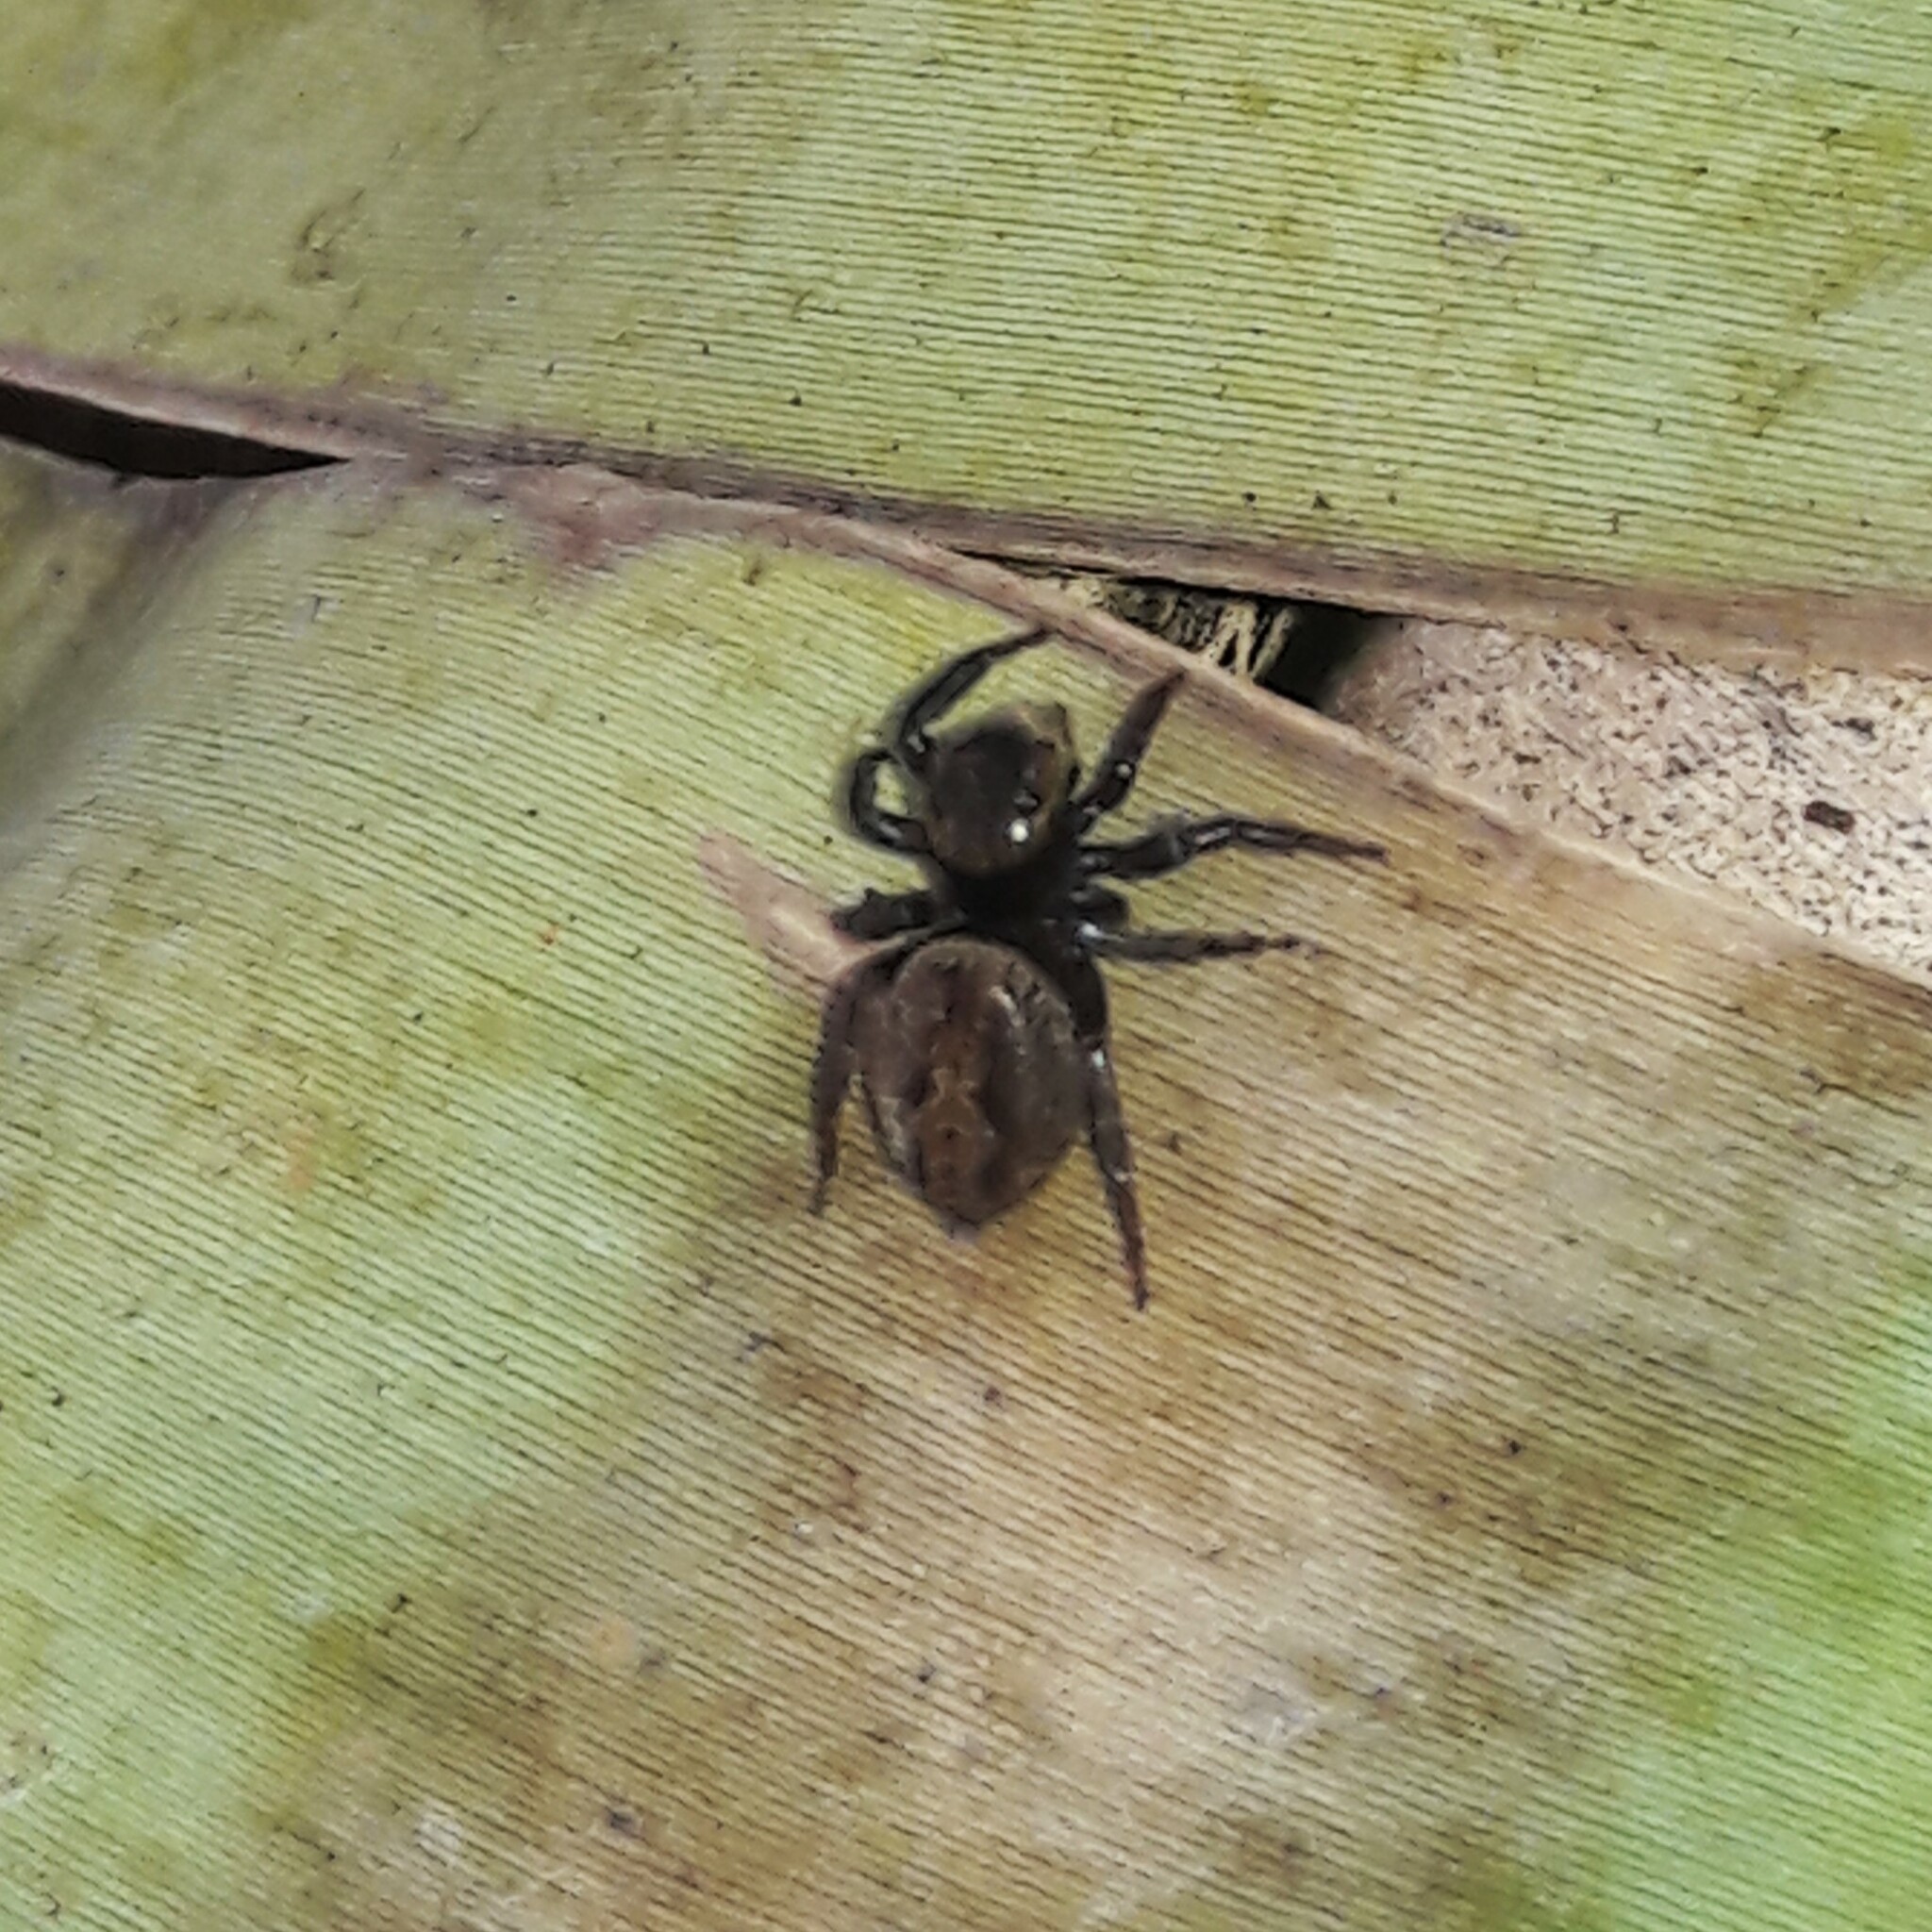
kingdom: Animalia
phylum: Arthropoda
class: Arachnida
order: Araneae
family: Salticidae
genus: Hasarius
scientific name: Hasarius adansoni
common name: Jumping spider
